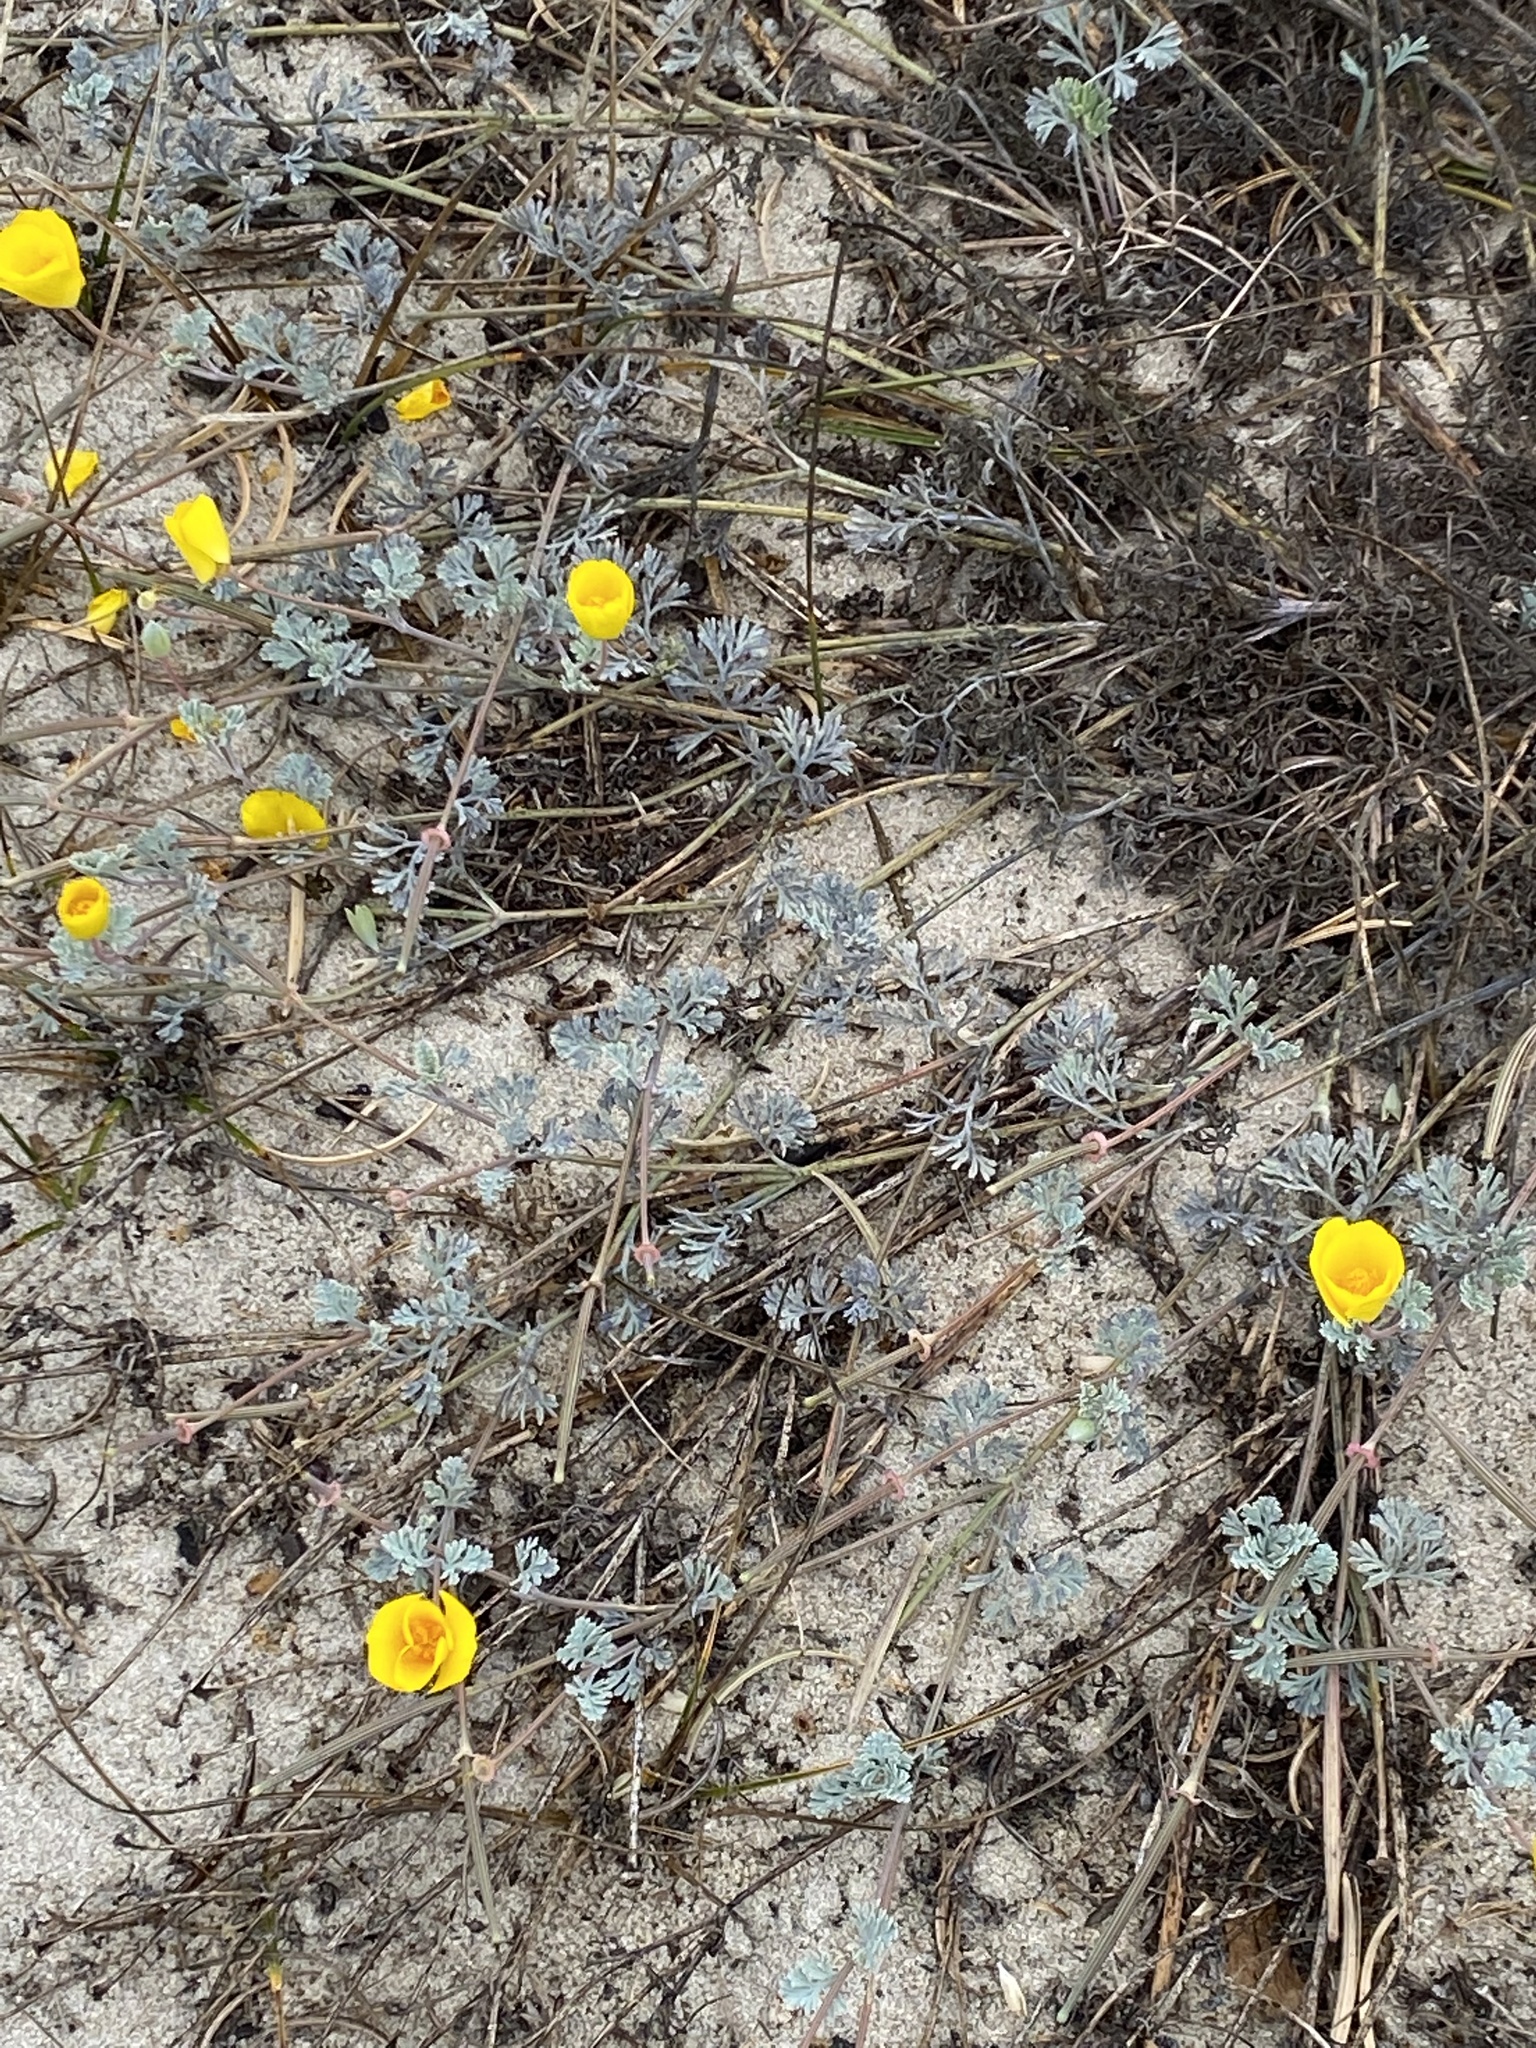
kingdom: Plantae
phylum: Tracheophyta
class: Magnoliopsida
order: Ranunculales
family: Papaveraceae
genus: Eschscholzia
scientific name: Eschscholzia californica
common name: California poppy
